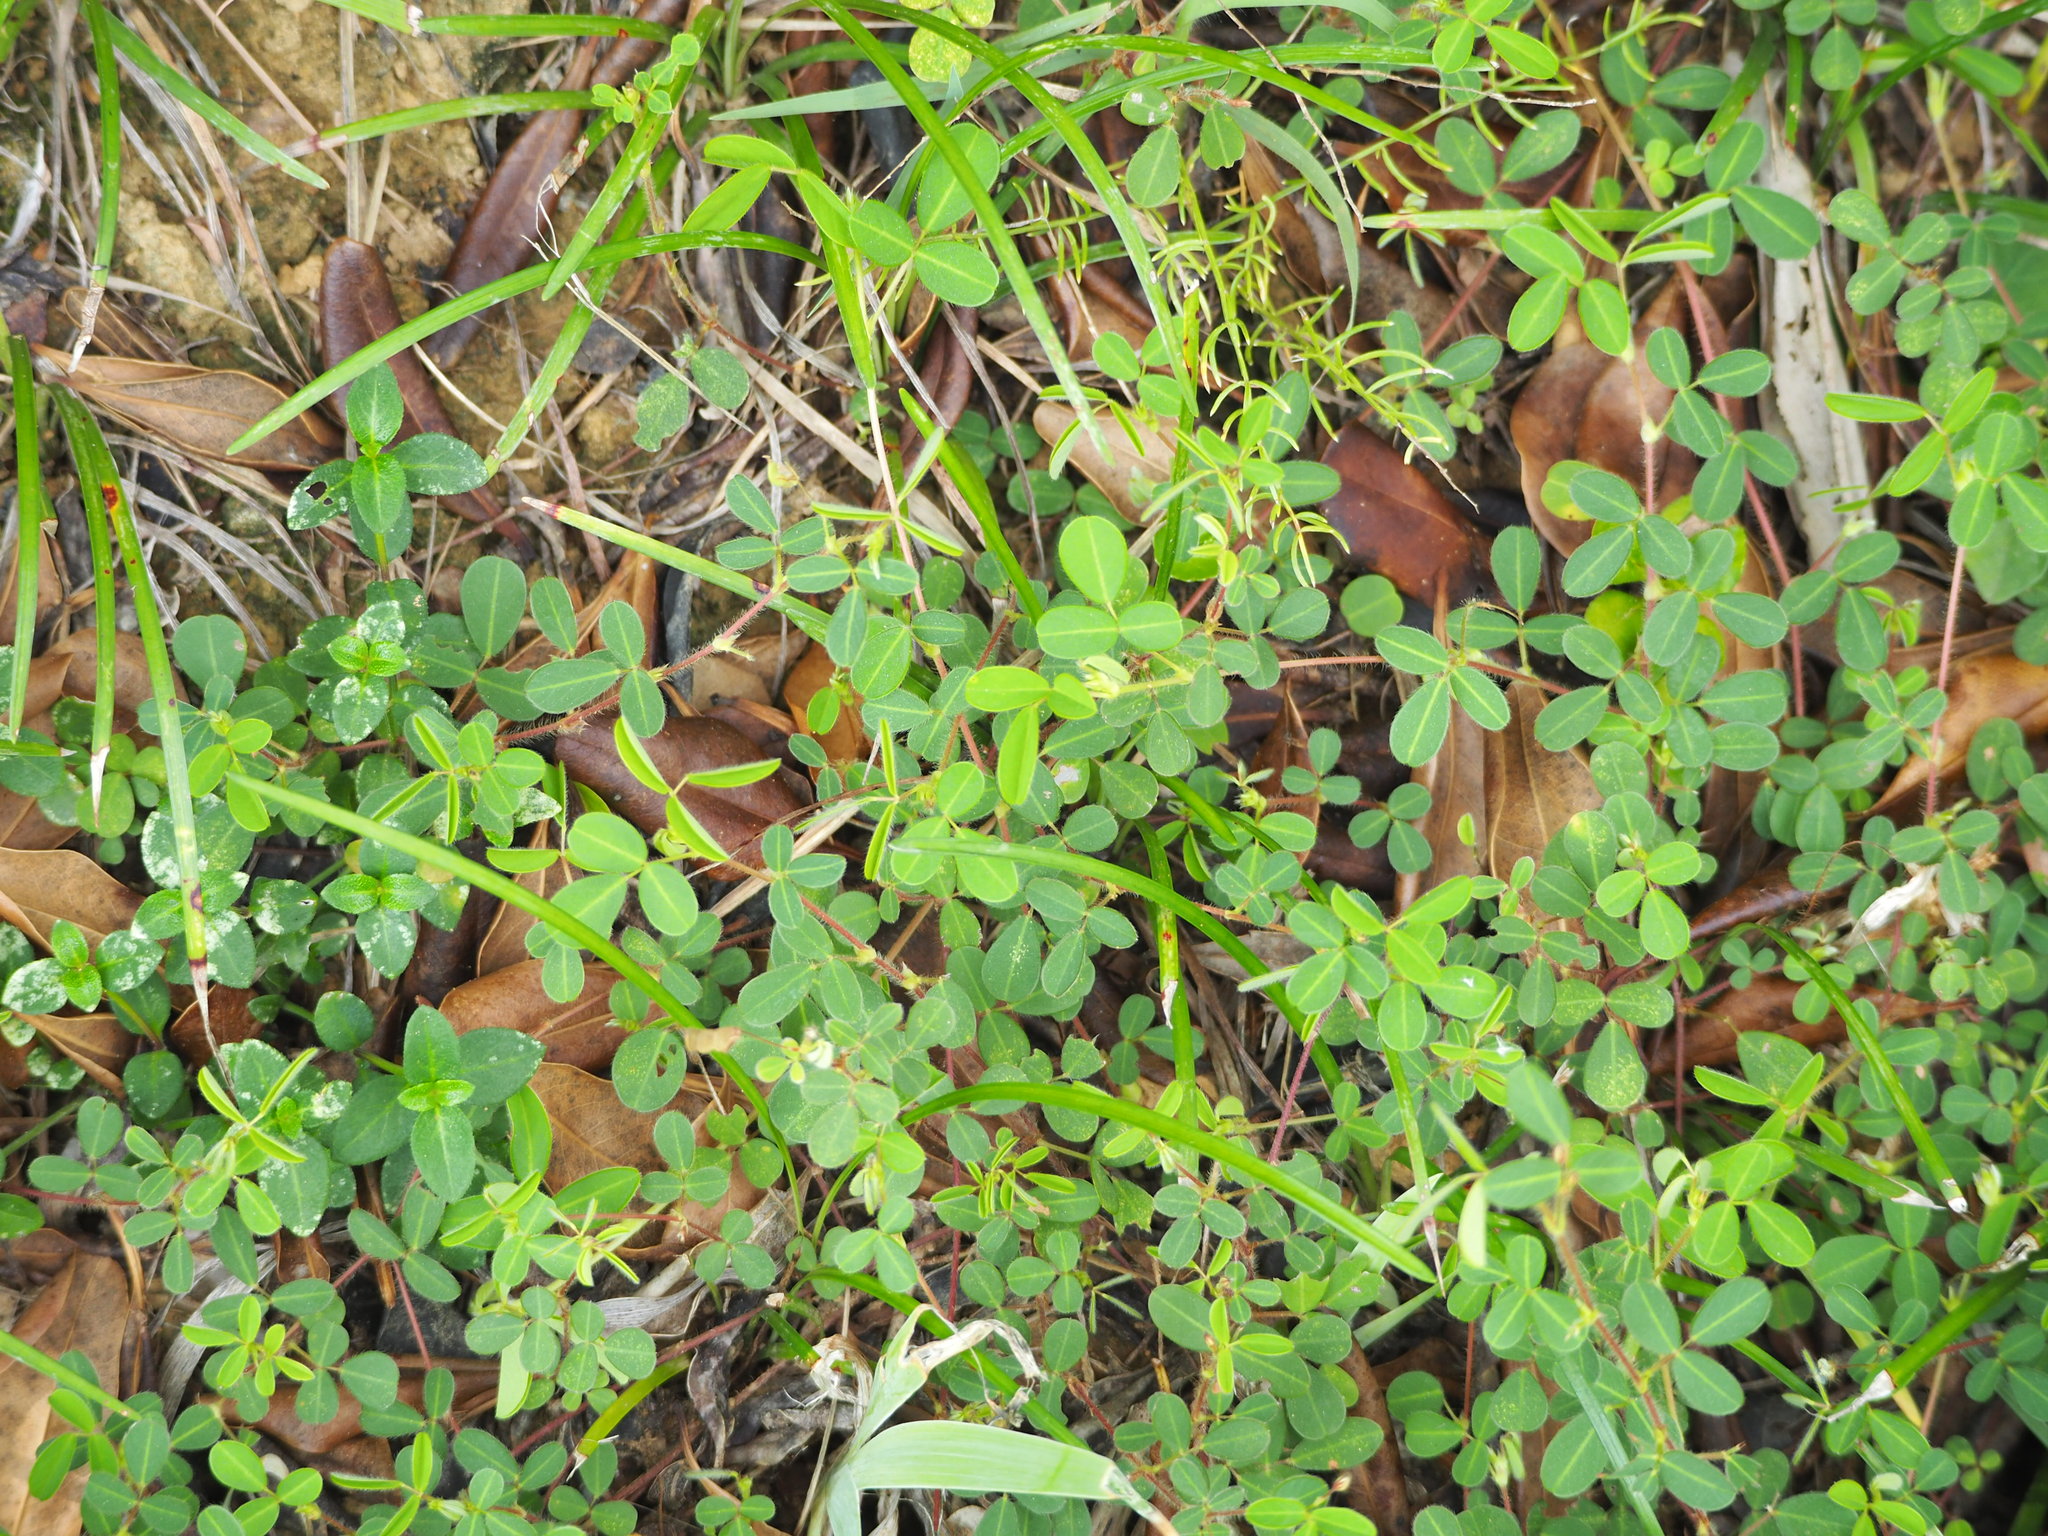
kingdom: Plantae
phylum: Tracheophyta
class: Magnoliopsida
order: Fabales
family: Fabaceae
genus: Grona
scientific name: Grona triflora
